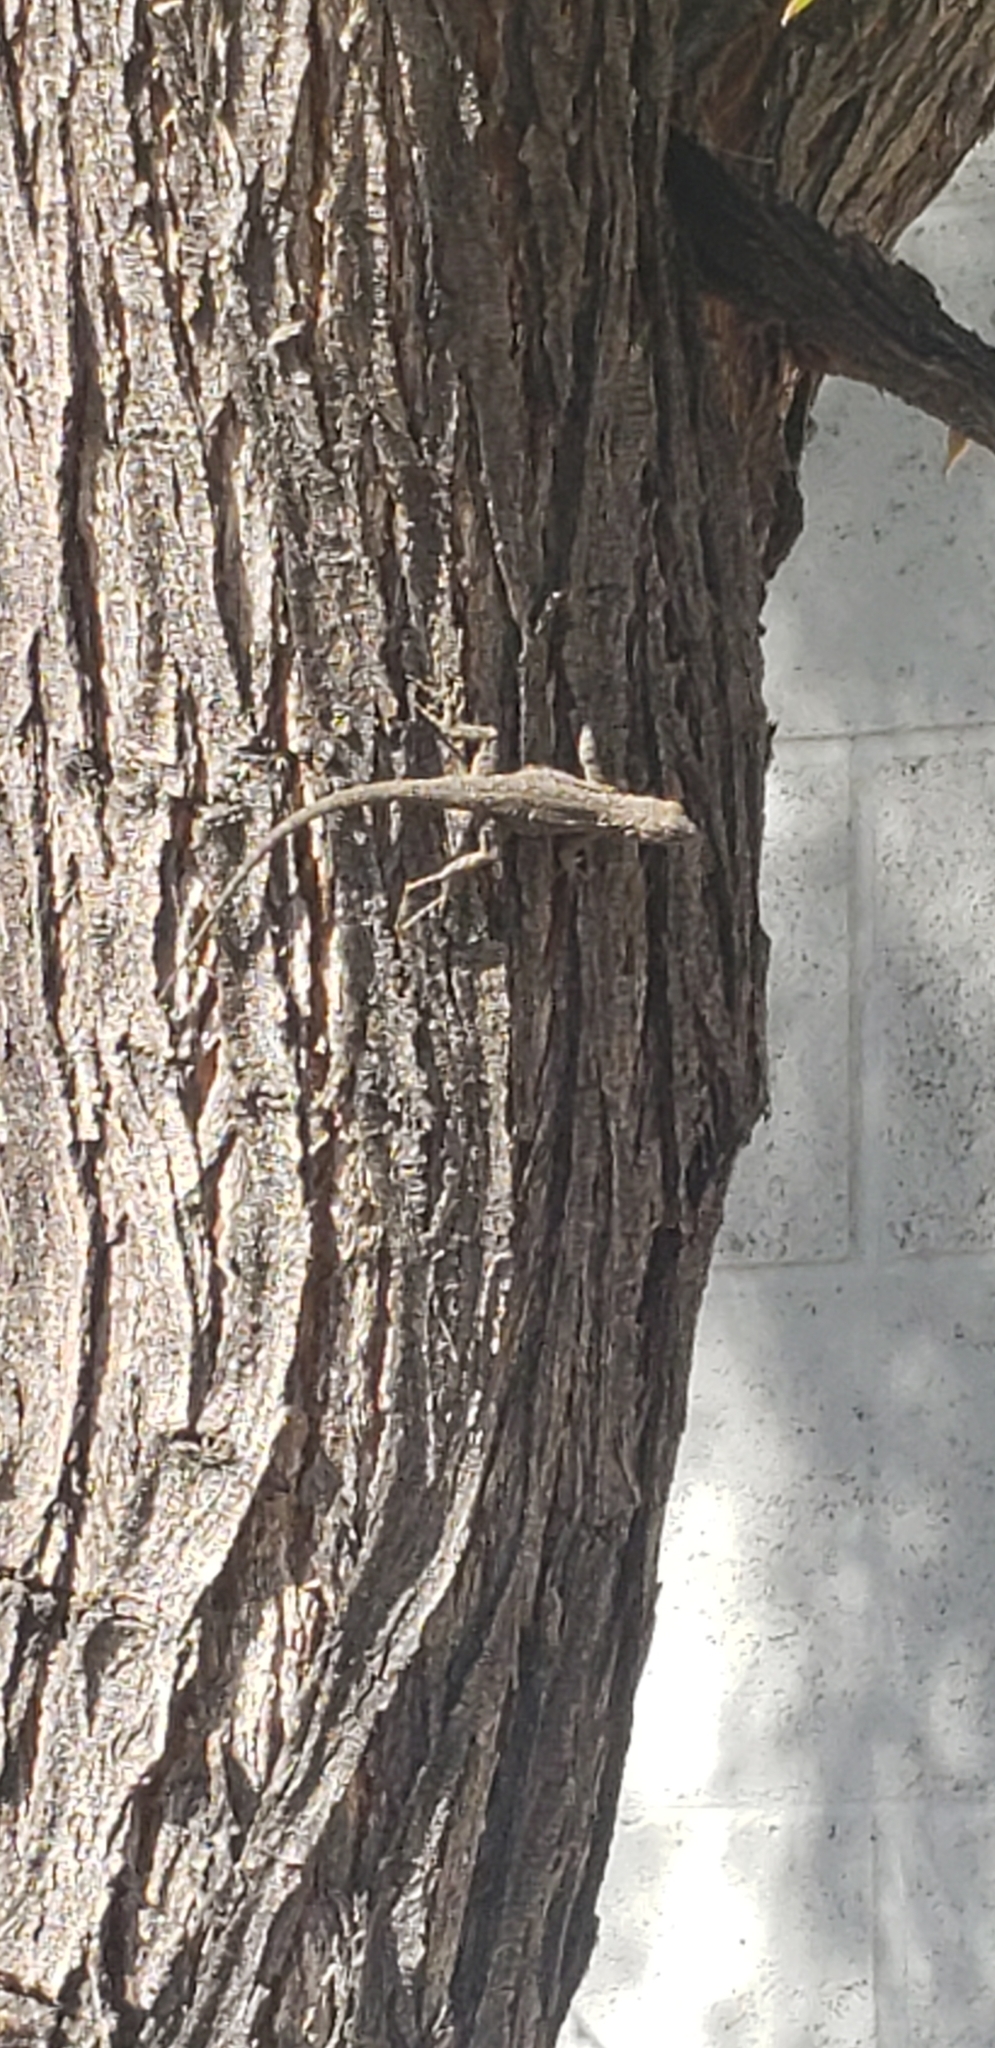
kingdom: Animalia
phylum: Chordata
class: Squamata
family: Phrynosomatidae
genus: Urosaurus
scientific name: Urosaurus ornatus
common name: Ornate tree lizard
